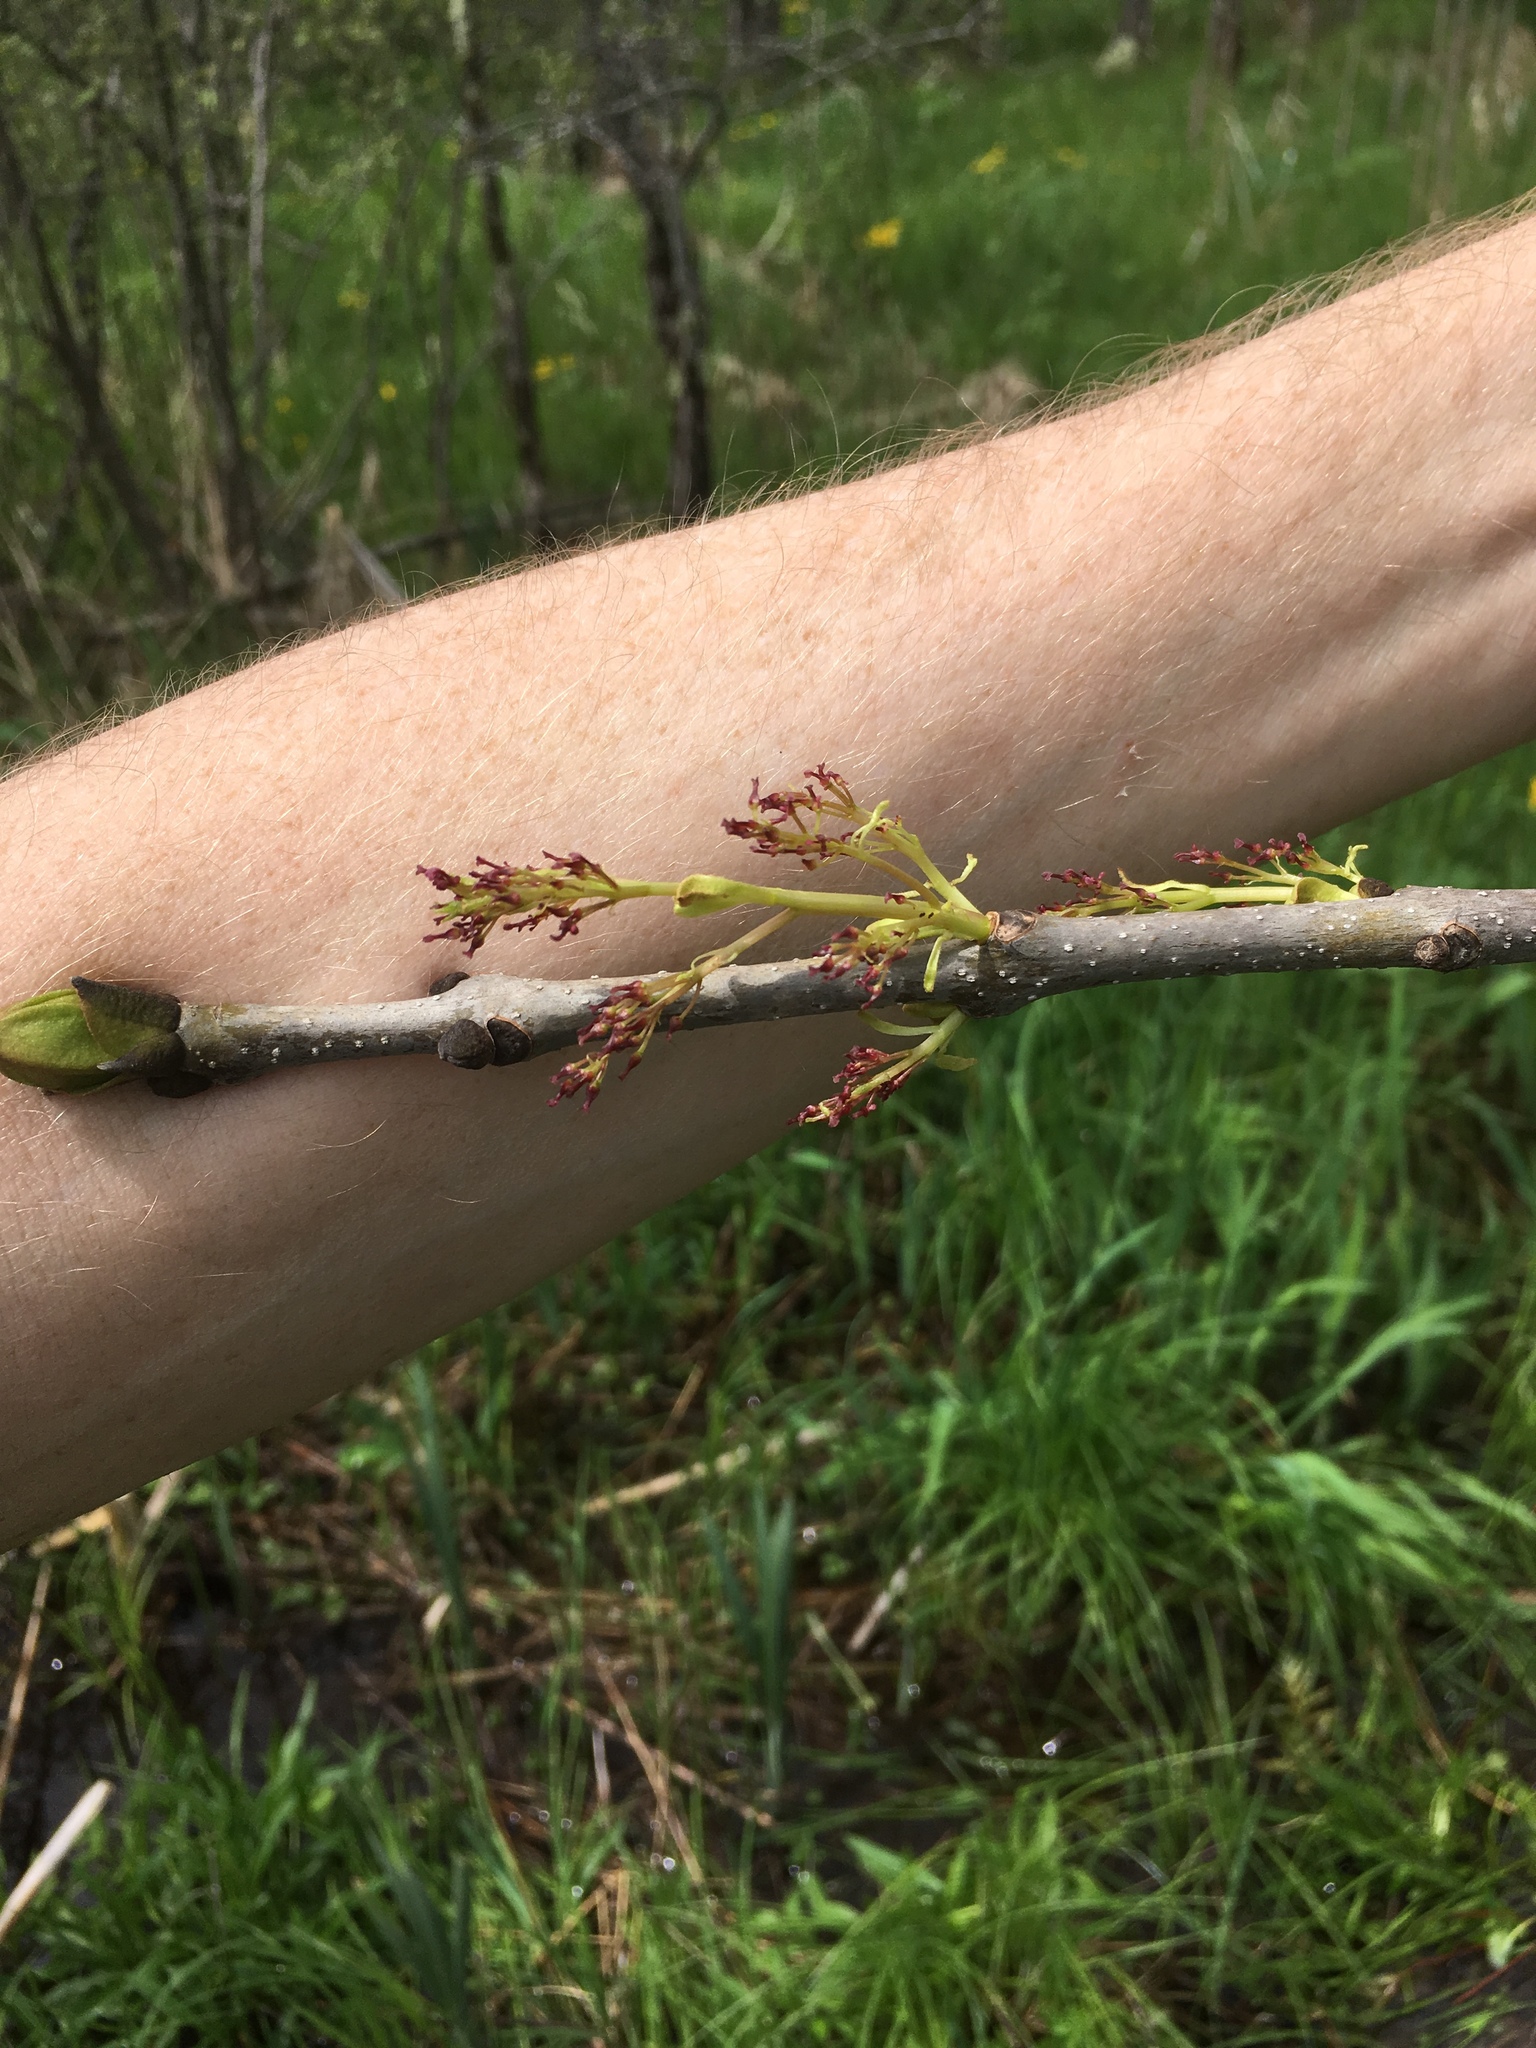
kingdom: Plantae
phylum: Tracheophyta
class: Magnoliopsida
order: Lamiales
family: Oleaceae
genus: Fraxinus
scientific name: Fraxinus nigra
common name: Black ash
